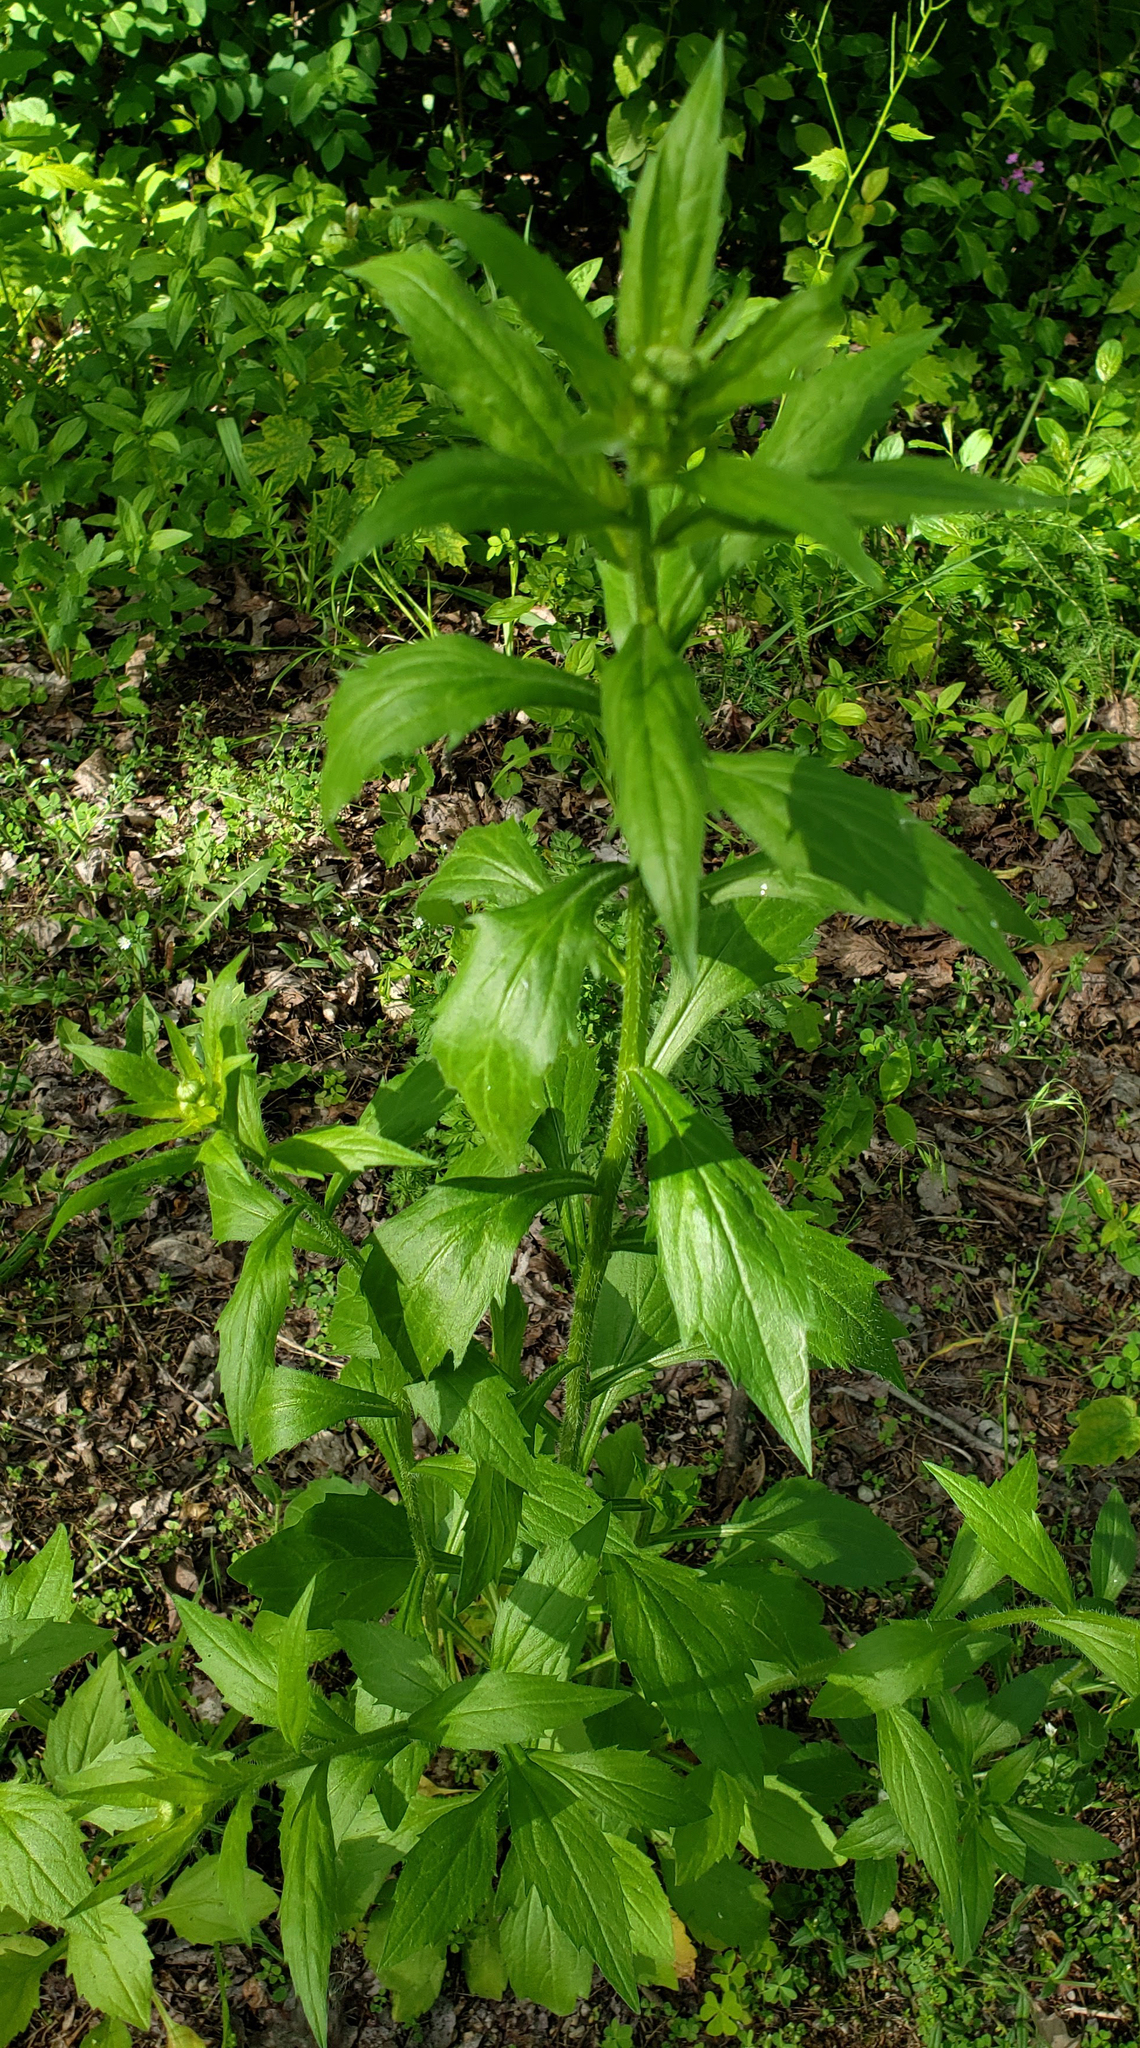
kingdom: Plantae
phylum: Tracheophyta
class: Magnoliopsida
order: Asterales
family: Asteraceae
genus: Erigeron
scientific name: Erigeron annuus
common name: Tall fleabane
